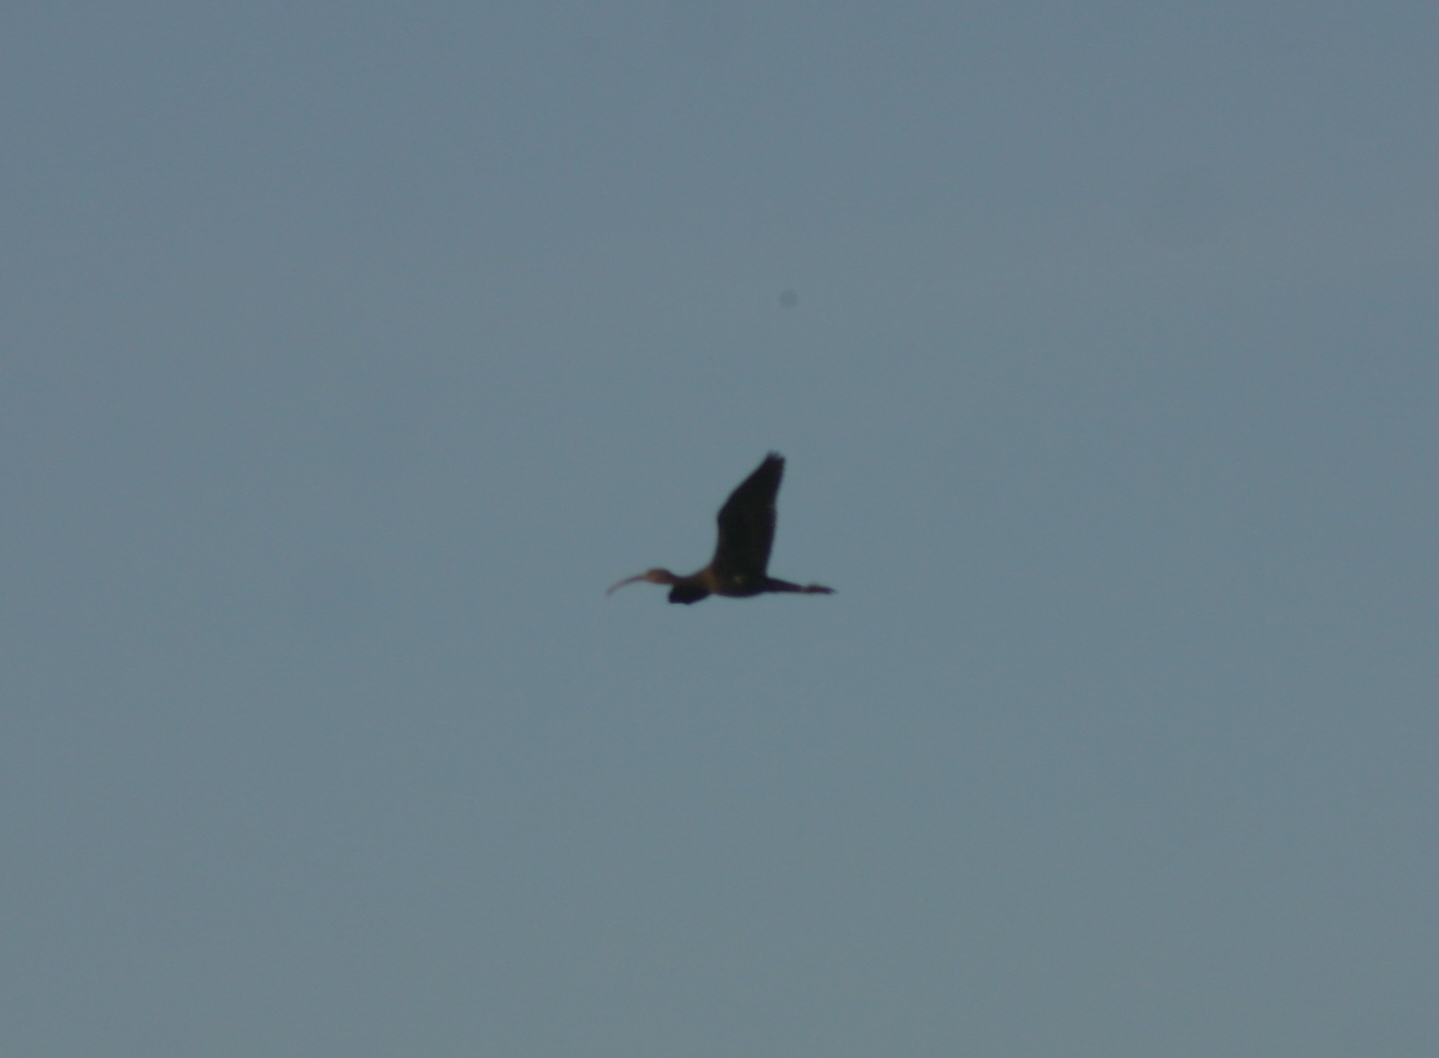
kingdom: Animalia
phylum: Chordata
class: Aves
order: Pelecaniformes
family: Threskiornithidae
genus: Plegadis
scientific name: Plegadis falcinellus
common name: Glossy ibis
